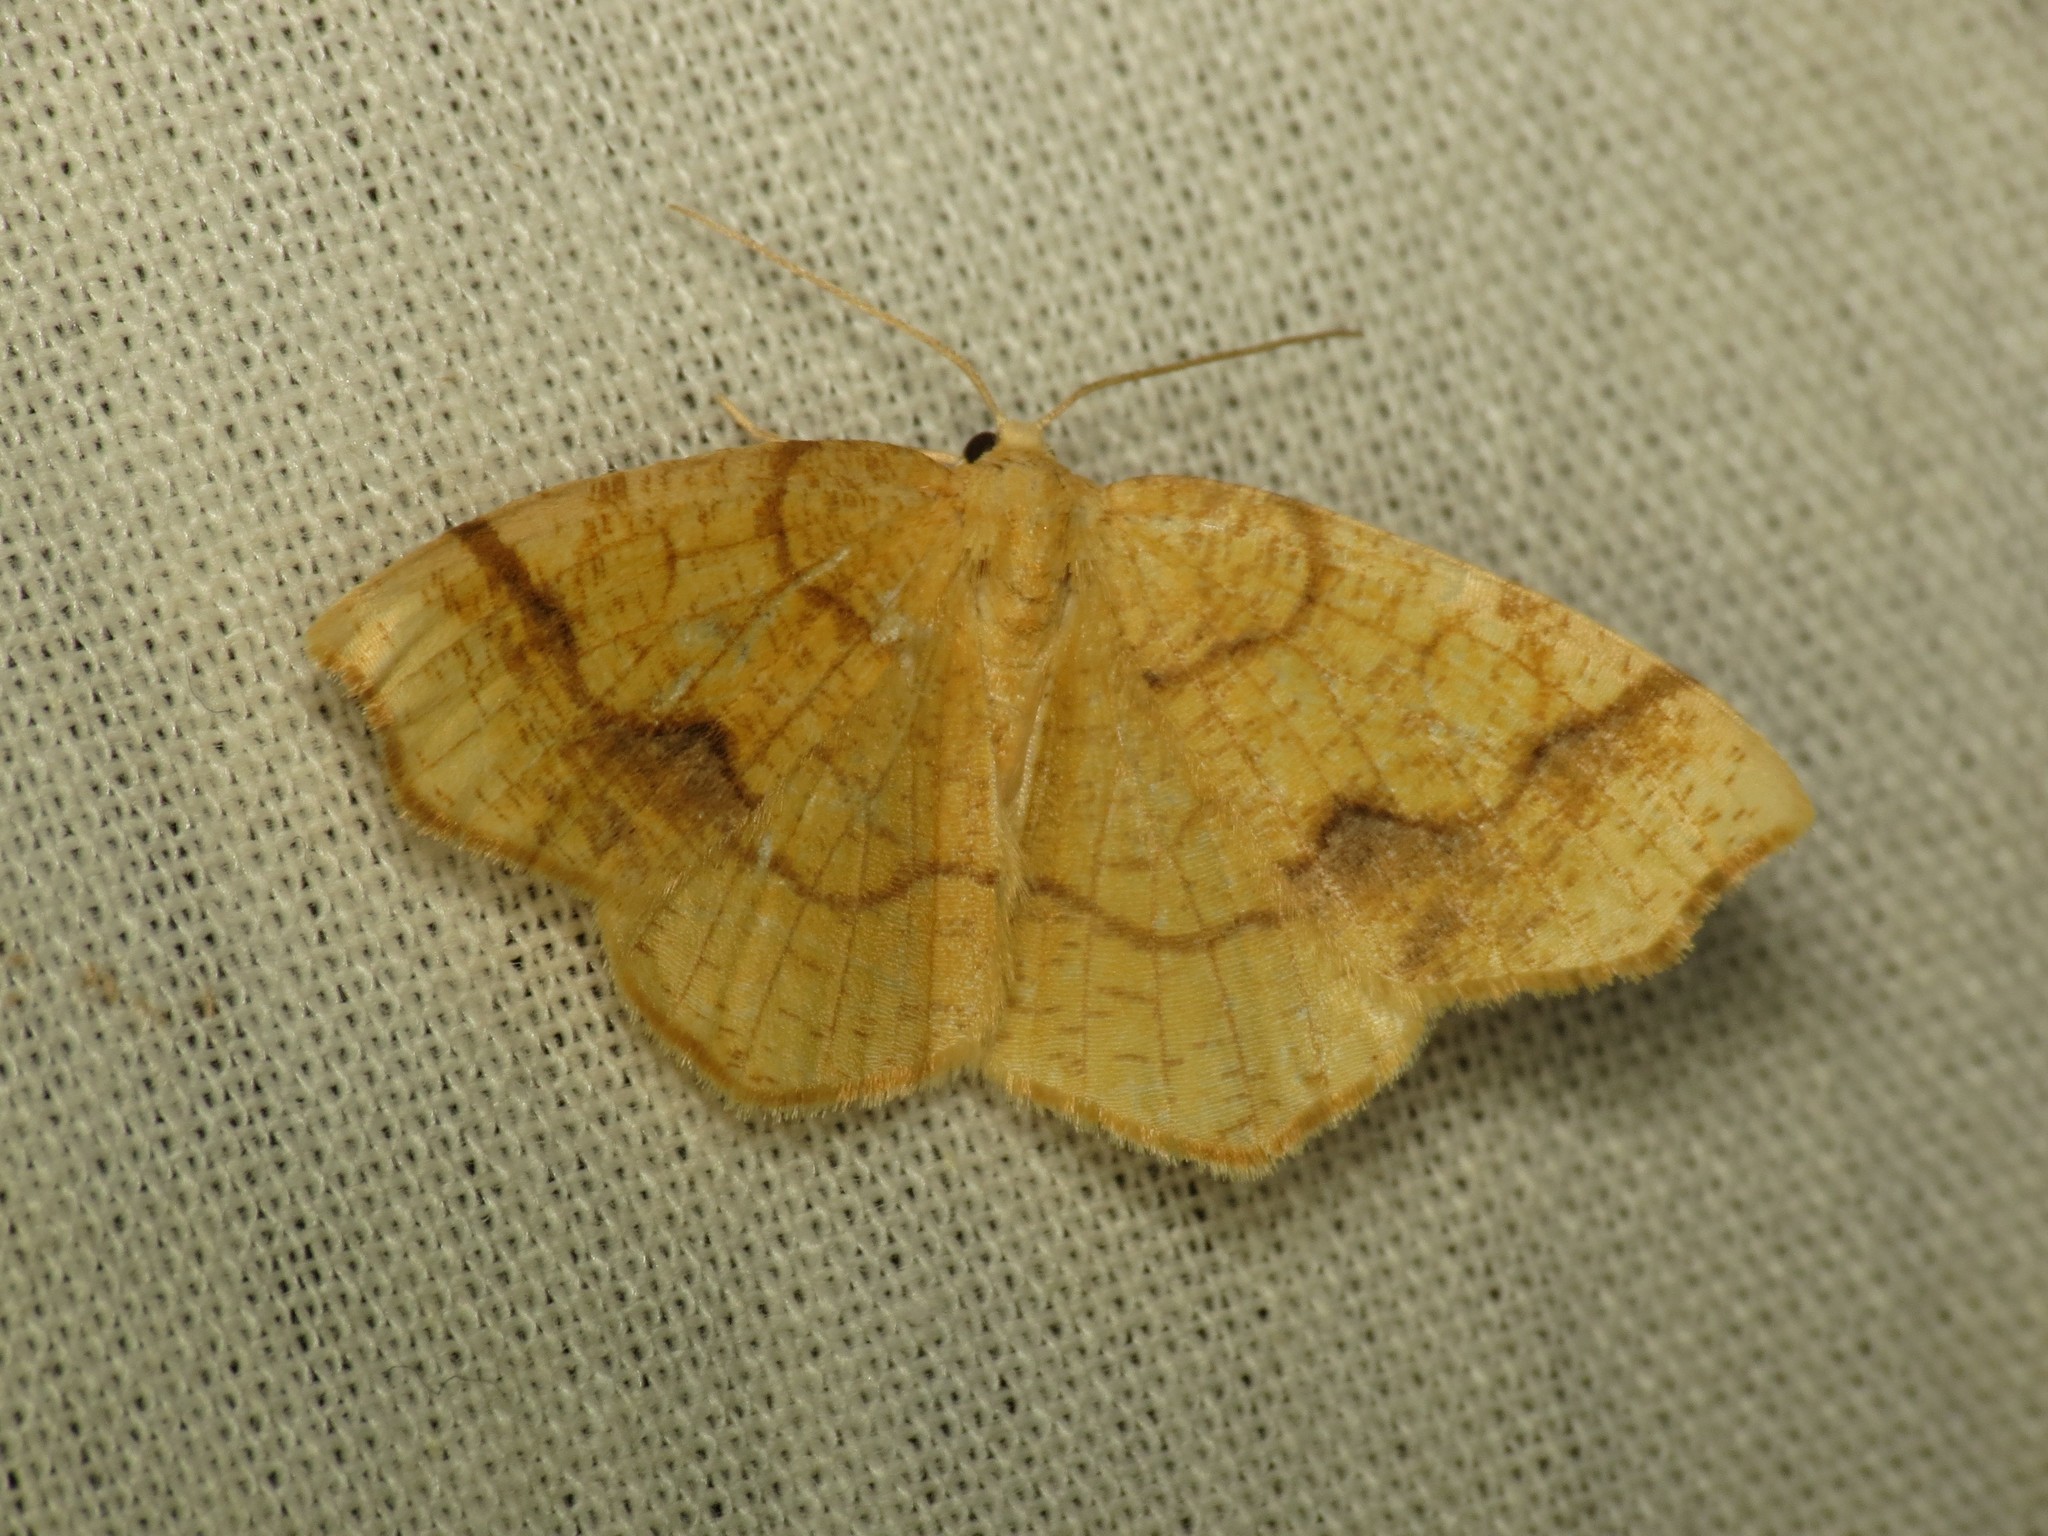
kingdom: Animalia
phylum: Arthropoda
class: Insecta
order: Lepidoptera
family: Geometridae
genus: Nematocampa
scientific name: Nematocampa brehmeata
